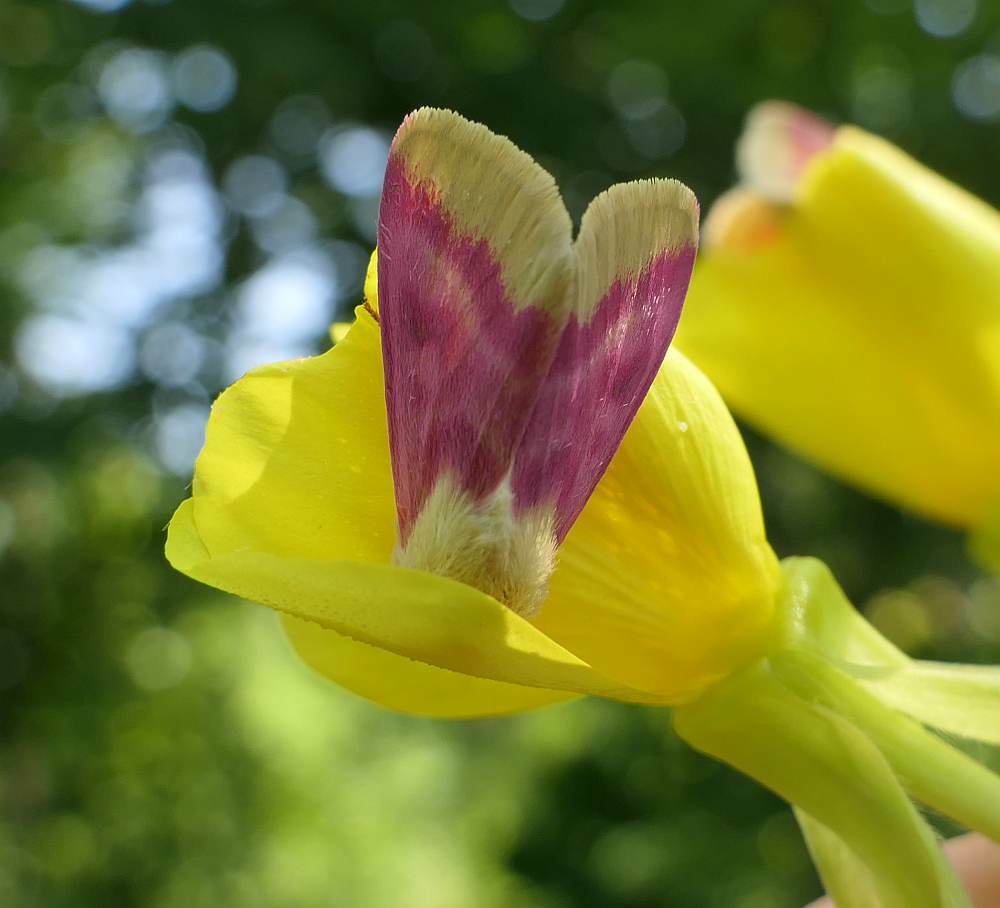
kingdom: Animalia
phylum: Arthropoda
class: Insecta
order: Lepidoptera
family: Noctuidae
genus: Schinia
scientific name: Schinia florida
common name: Primrose moth
